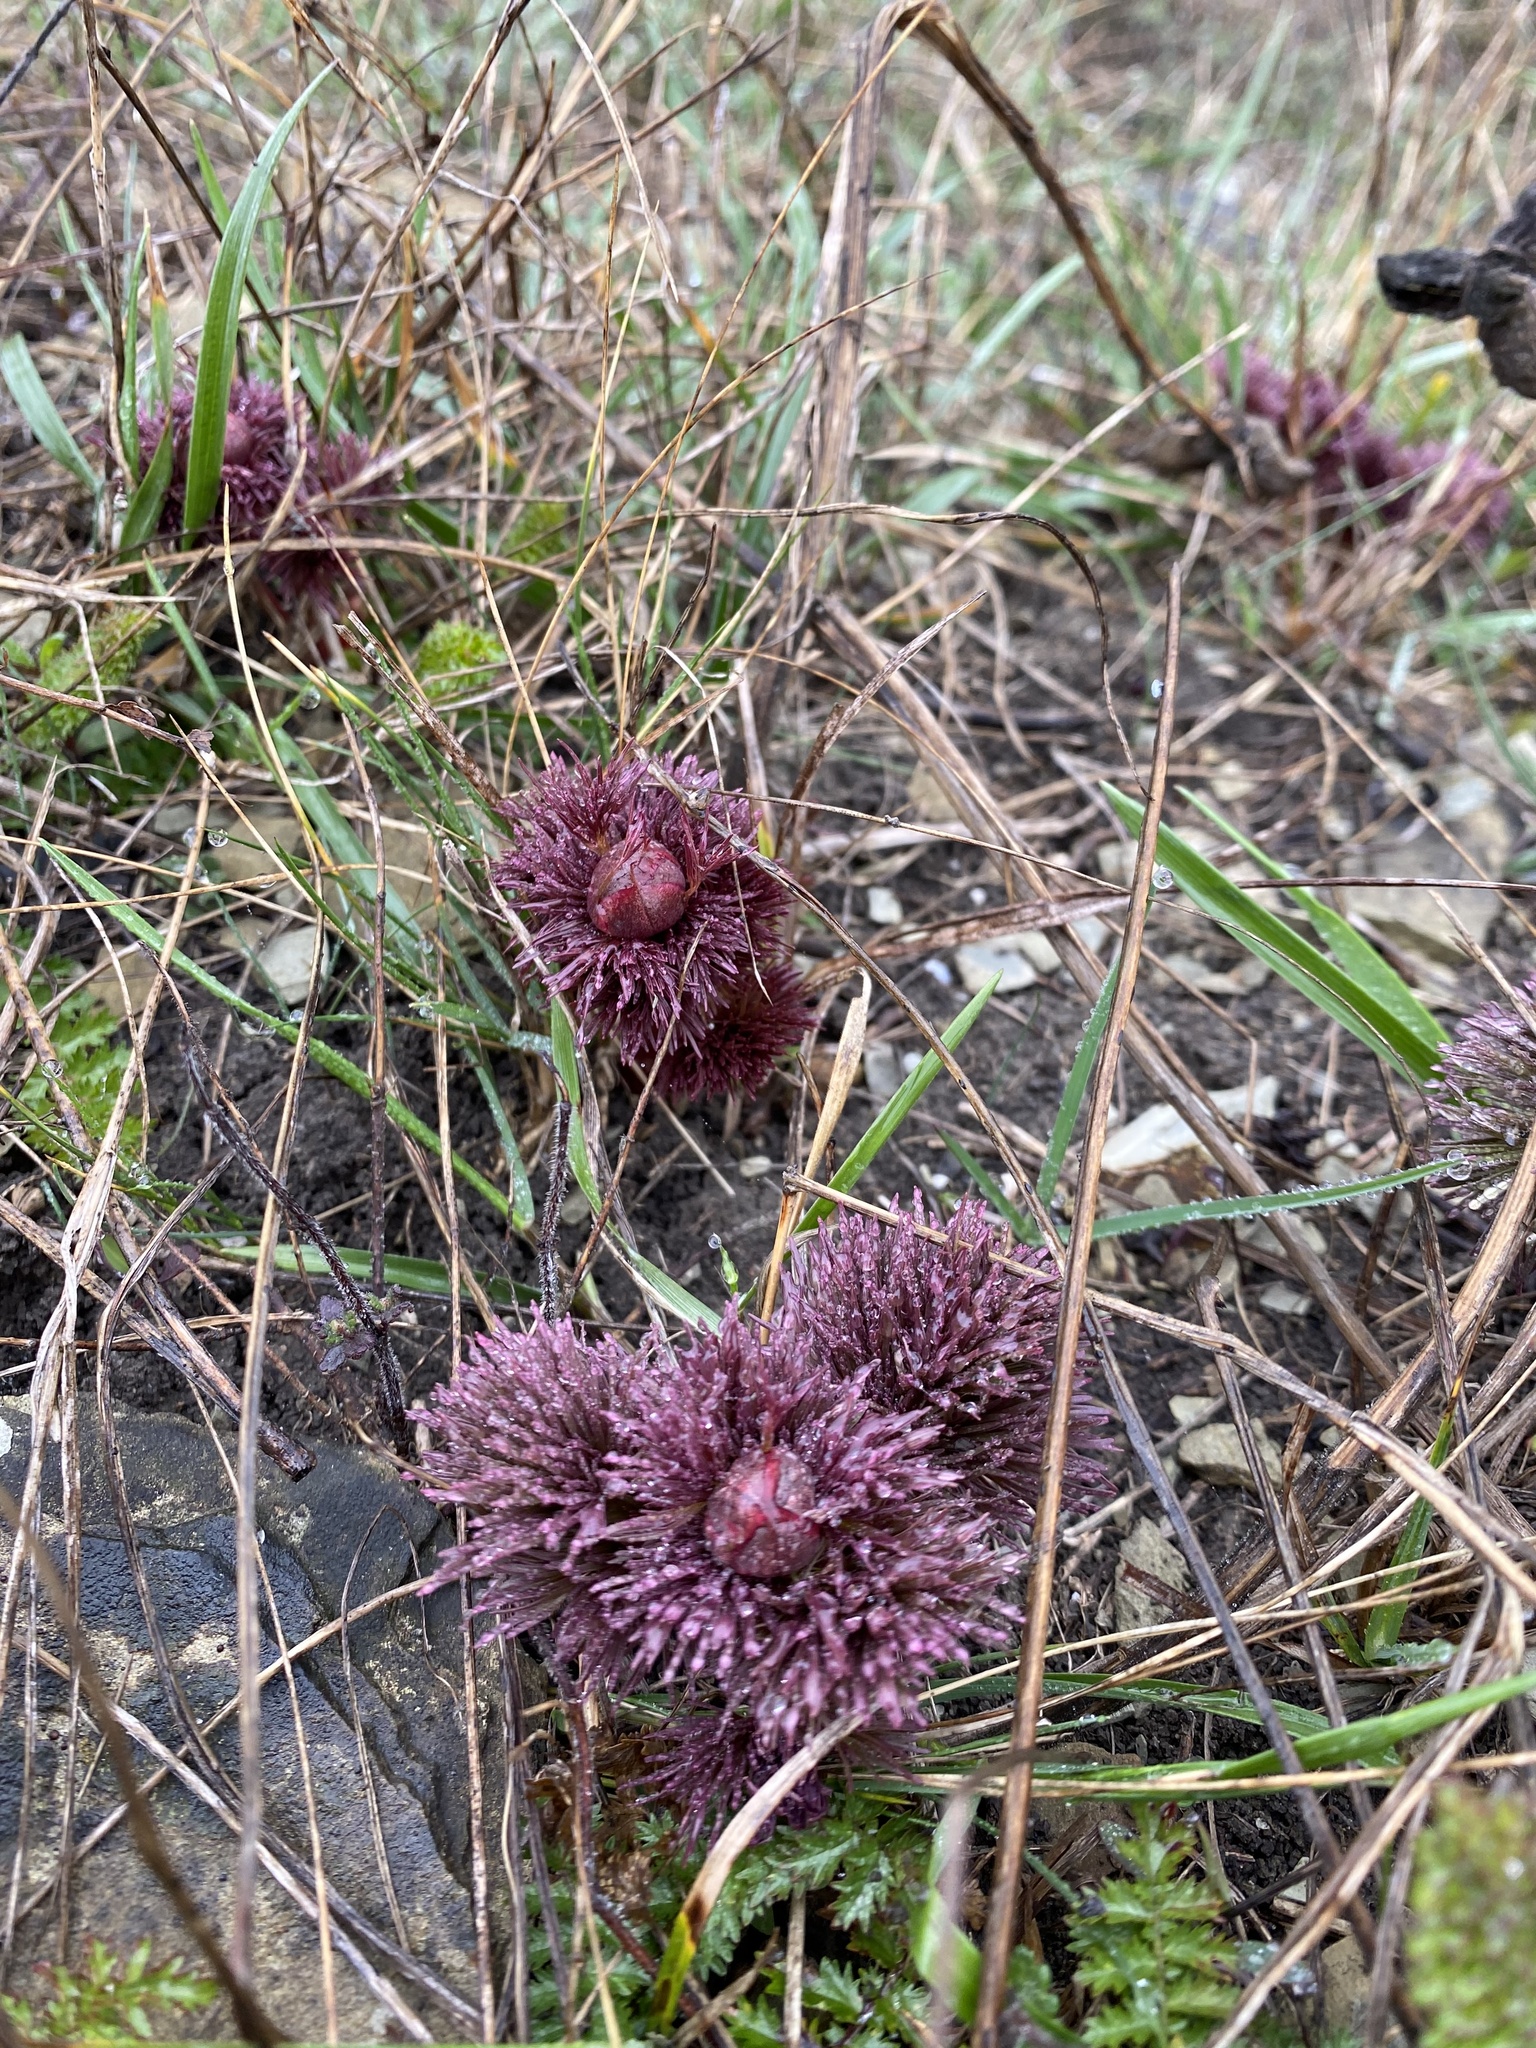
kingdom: Plantae
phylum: Tracheophyta
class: Magnoliopsida
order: Saxifragales
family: Paeoniaceae
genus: Paeonia
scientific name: Paeonia tenuifolia
